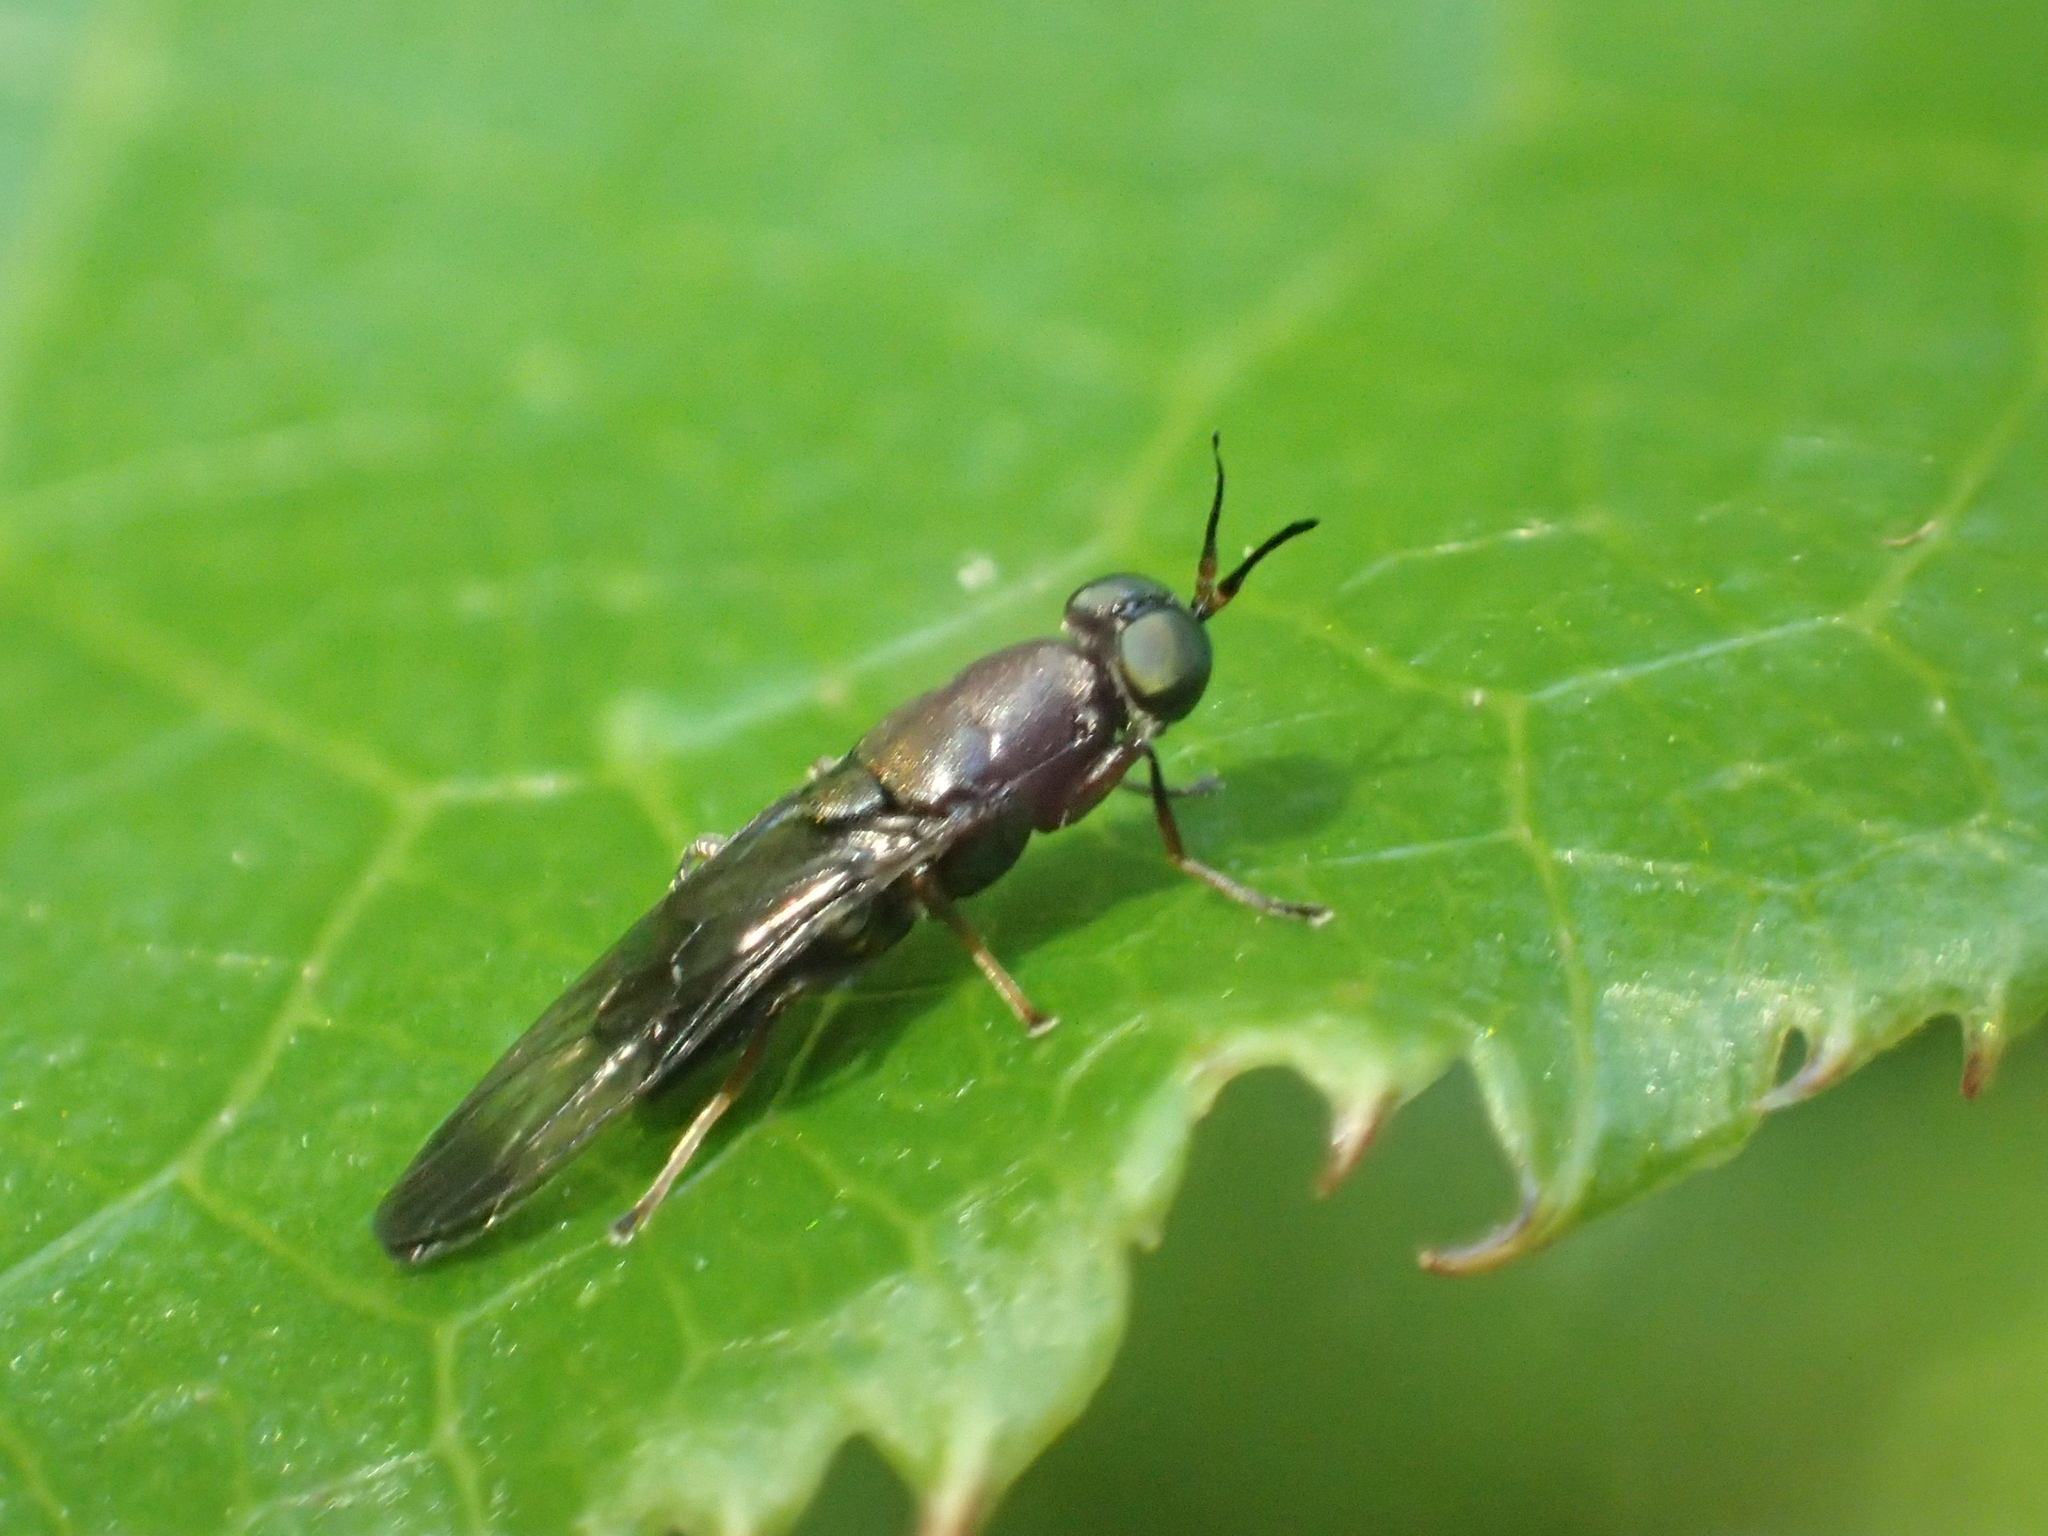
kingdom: Animalia
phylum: Arthropoda
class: Insecta
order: Diptera
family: Stratiomyidae
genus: Dysbiota
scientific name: Dysbiota peregrina
